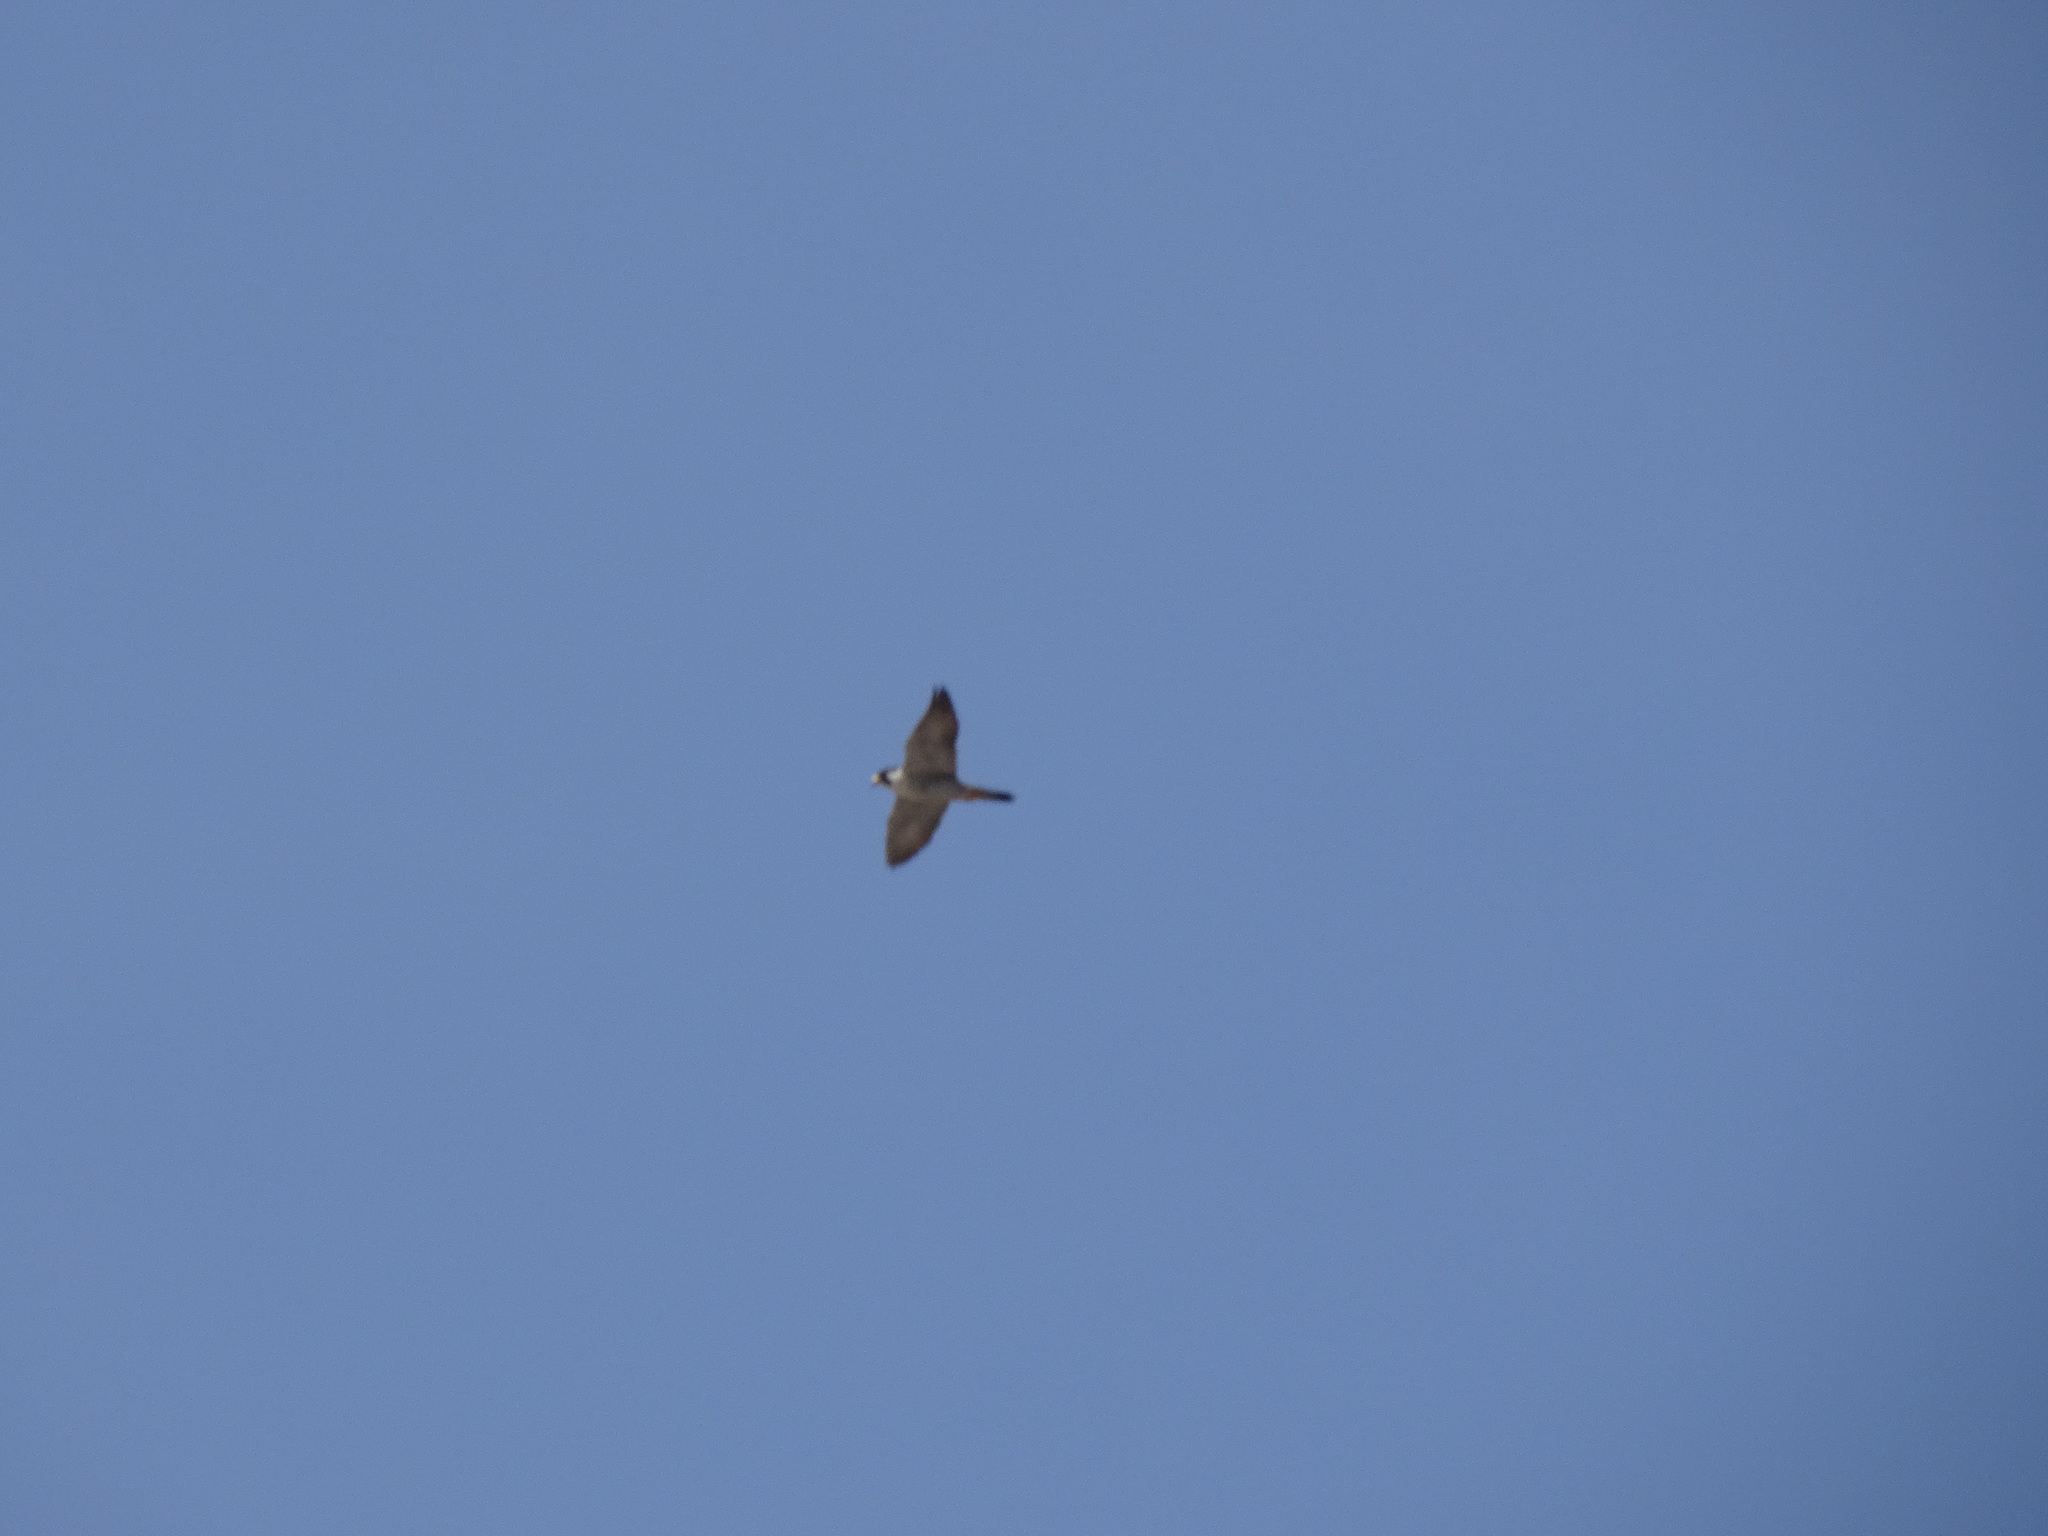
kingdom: Animalia
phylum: Chordata
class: Aves
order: Falconiformes
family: Falconidae
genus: Falco
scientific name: Falco peregrinus
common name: Peregrine falcon
